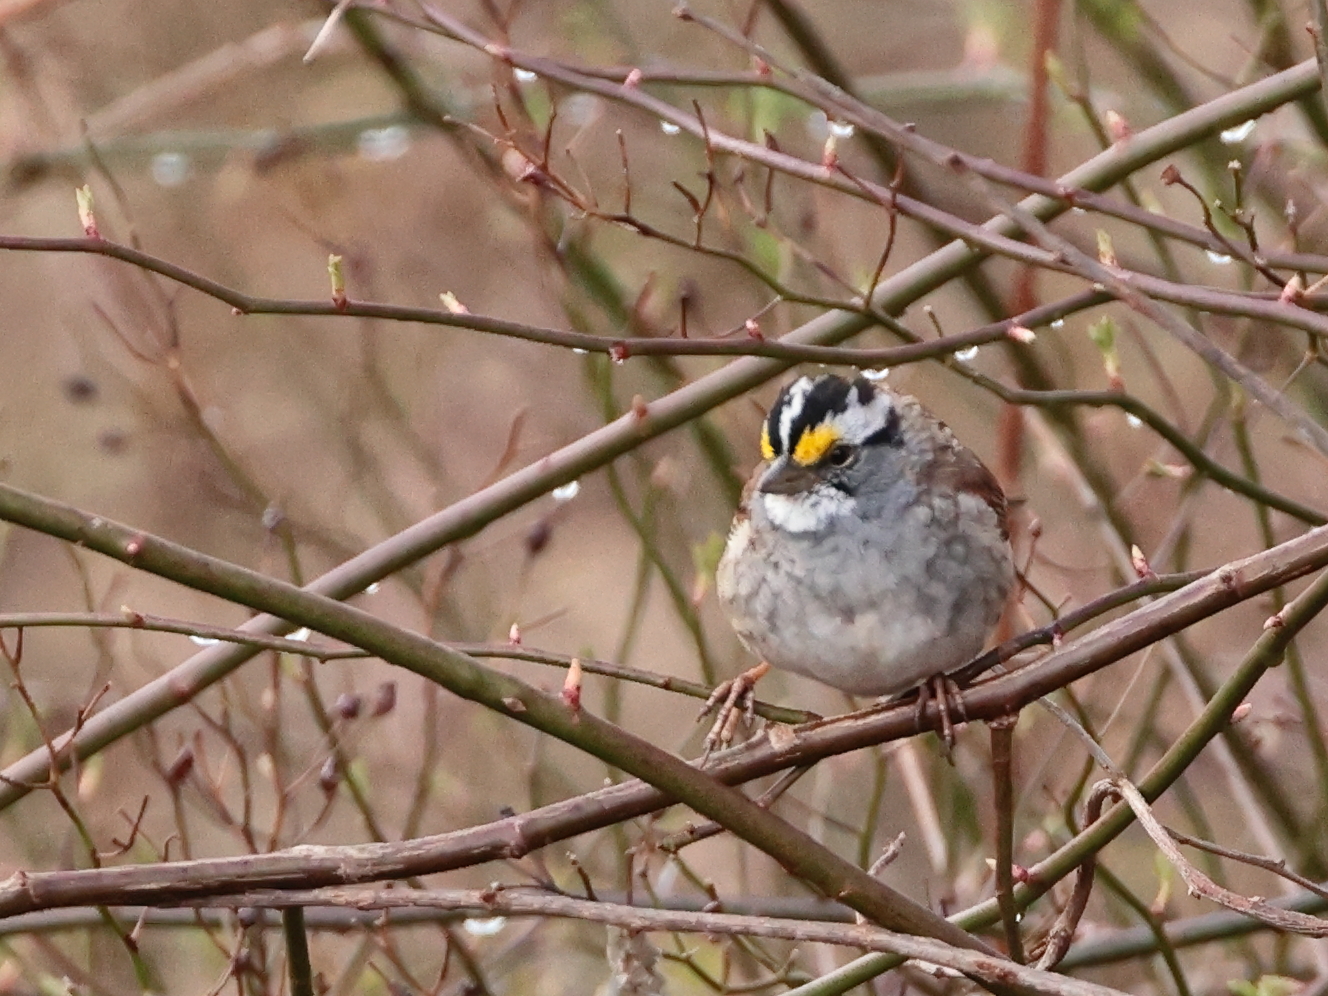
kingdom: Animalia
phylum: Chordata
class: Aves
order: Passeriformes
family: Passerellidae
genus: Zonotrichia
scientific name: Zonotrichia albicollis
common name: White-throated sparrow
